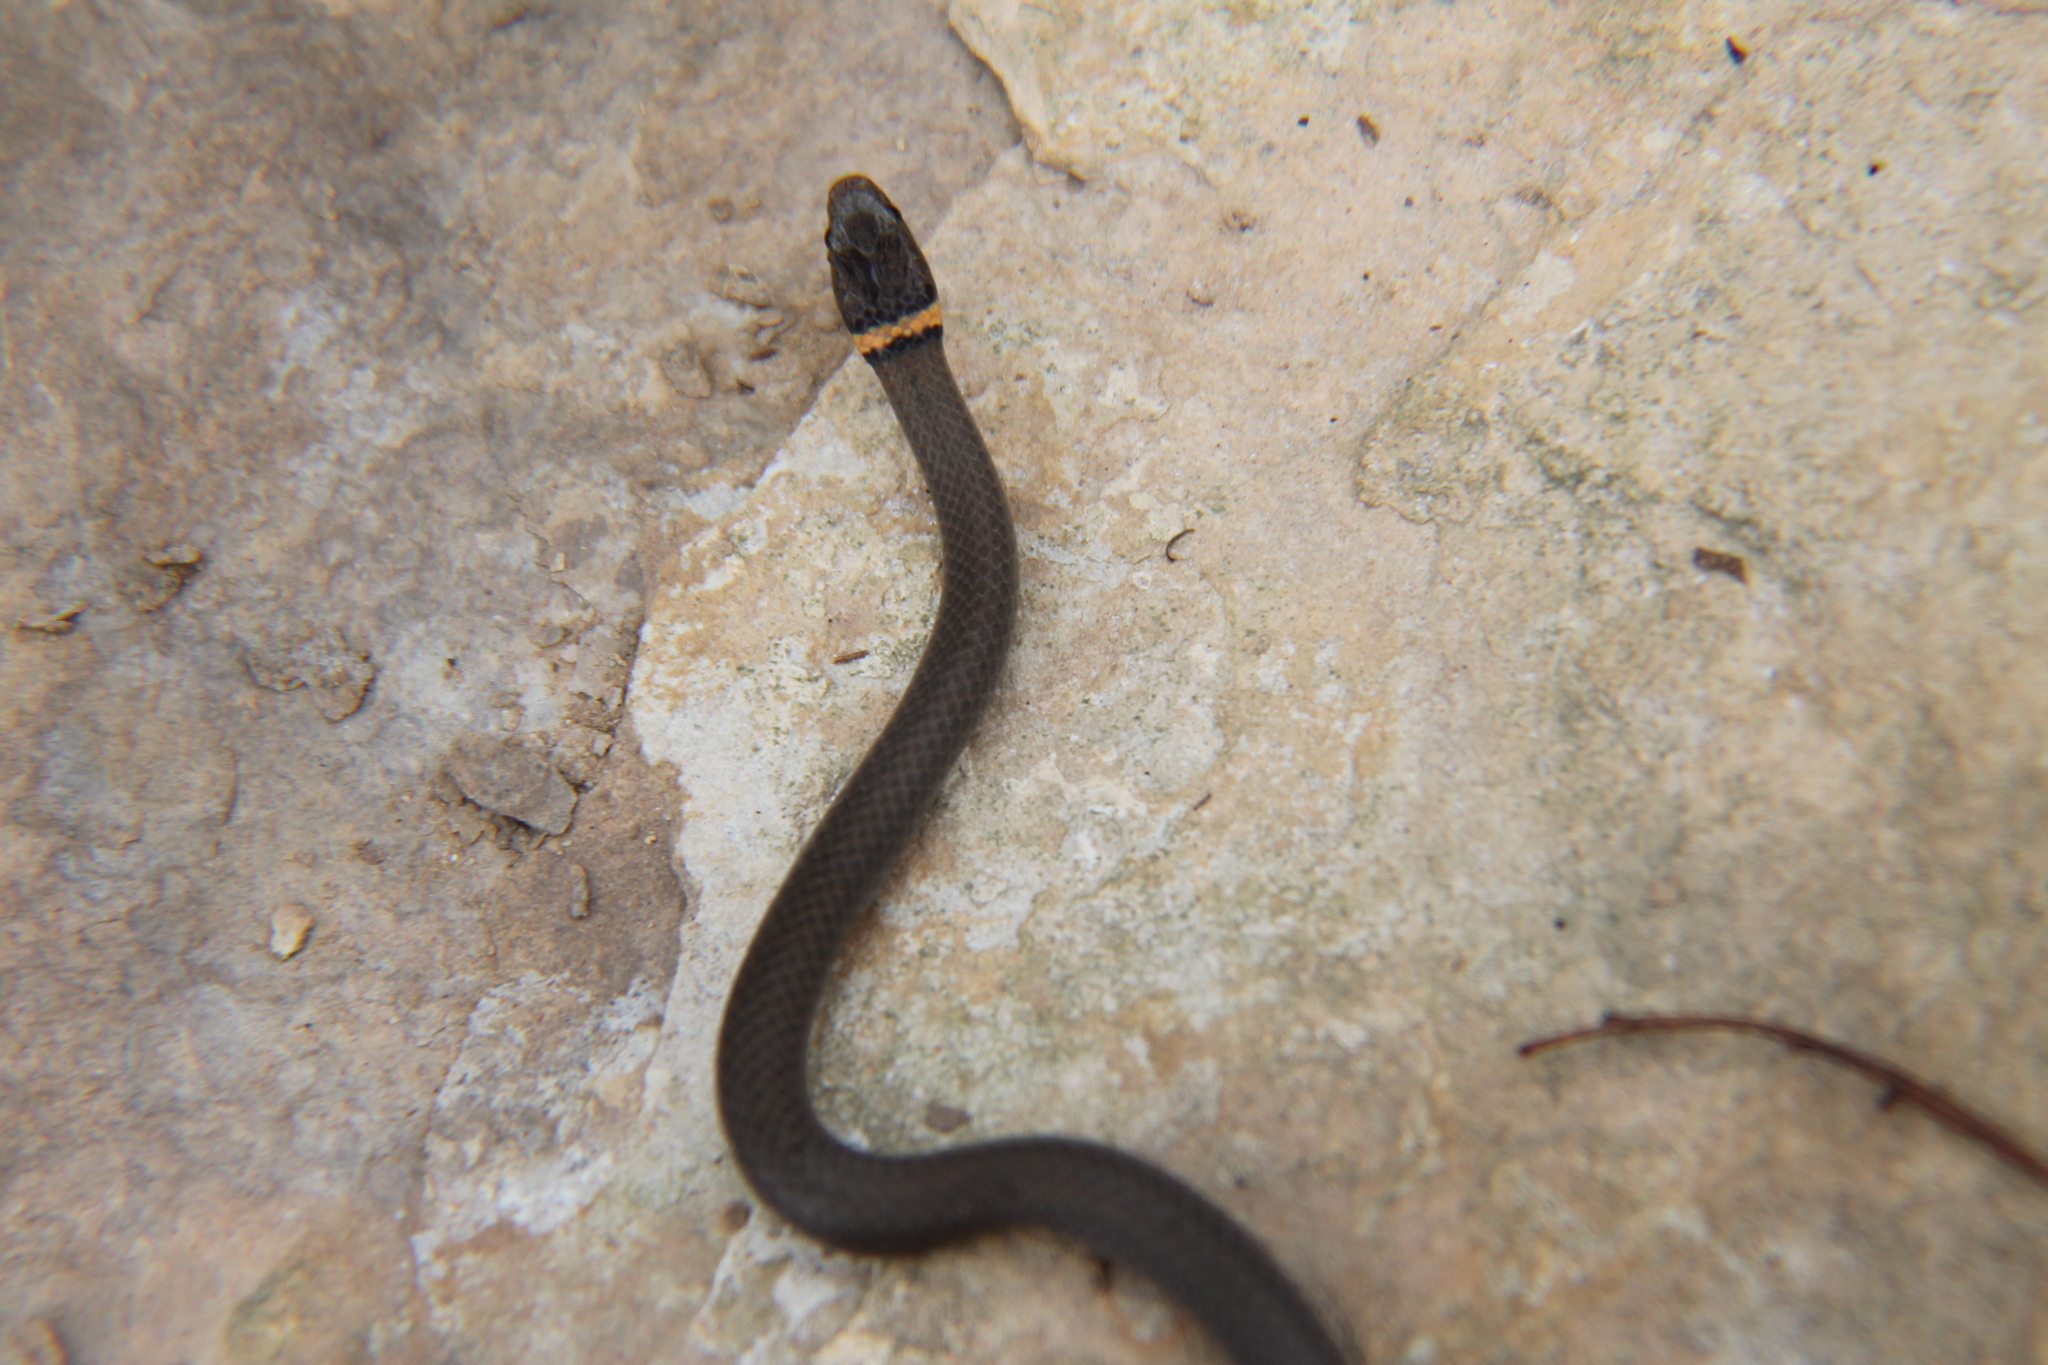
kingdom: Animalia
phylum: Chordata
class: Squamata
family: Colubridae
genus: Diadophis
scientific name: Diadophis punctatus
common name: Ringneck snake
